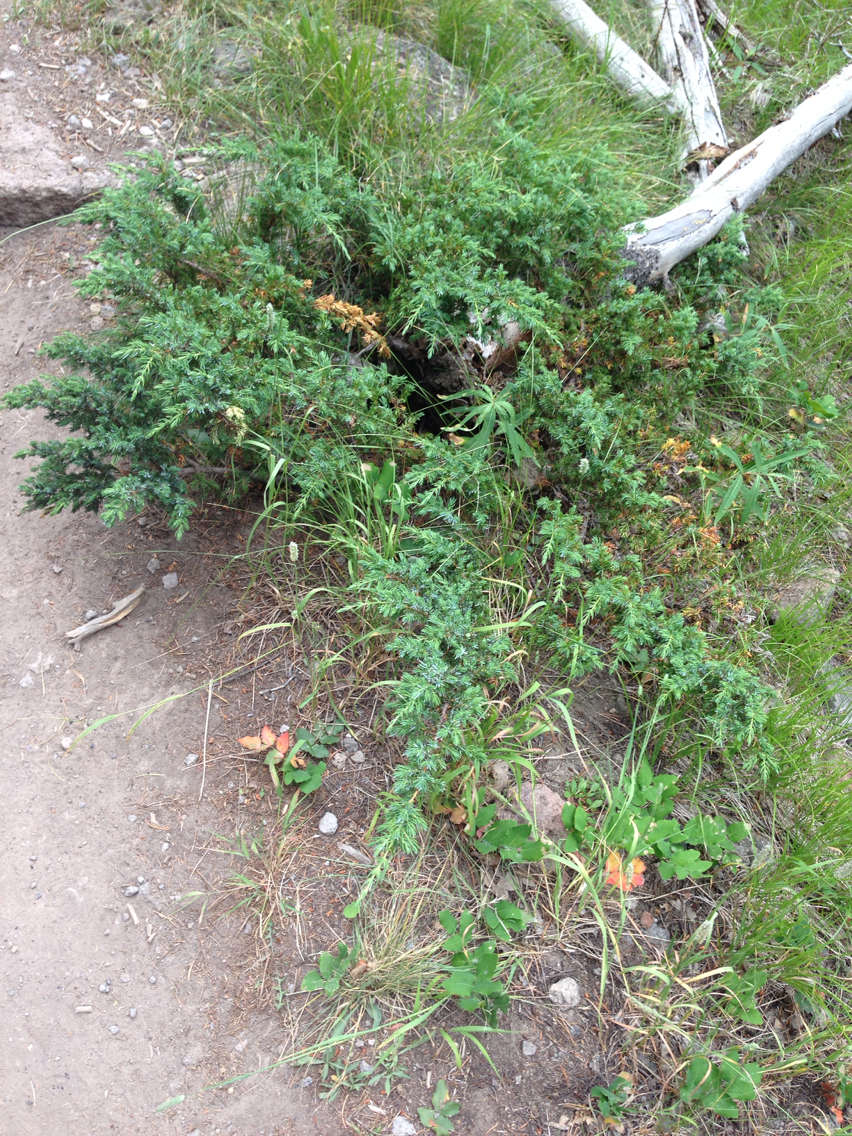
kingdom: Plantae
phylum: Tracheophyta
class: Pinopsida
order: Pinales
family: Cupressaceae
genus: Juniperus
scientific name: Juniperus communis
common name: Common juniper
